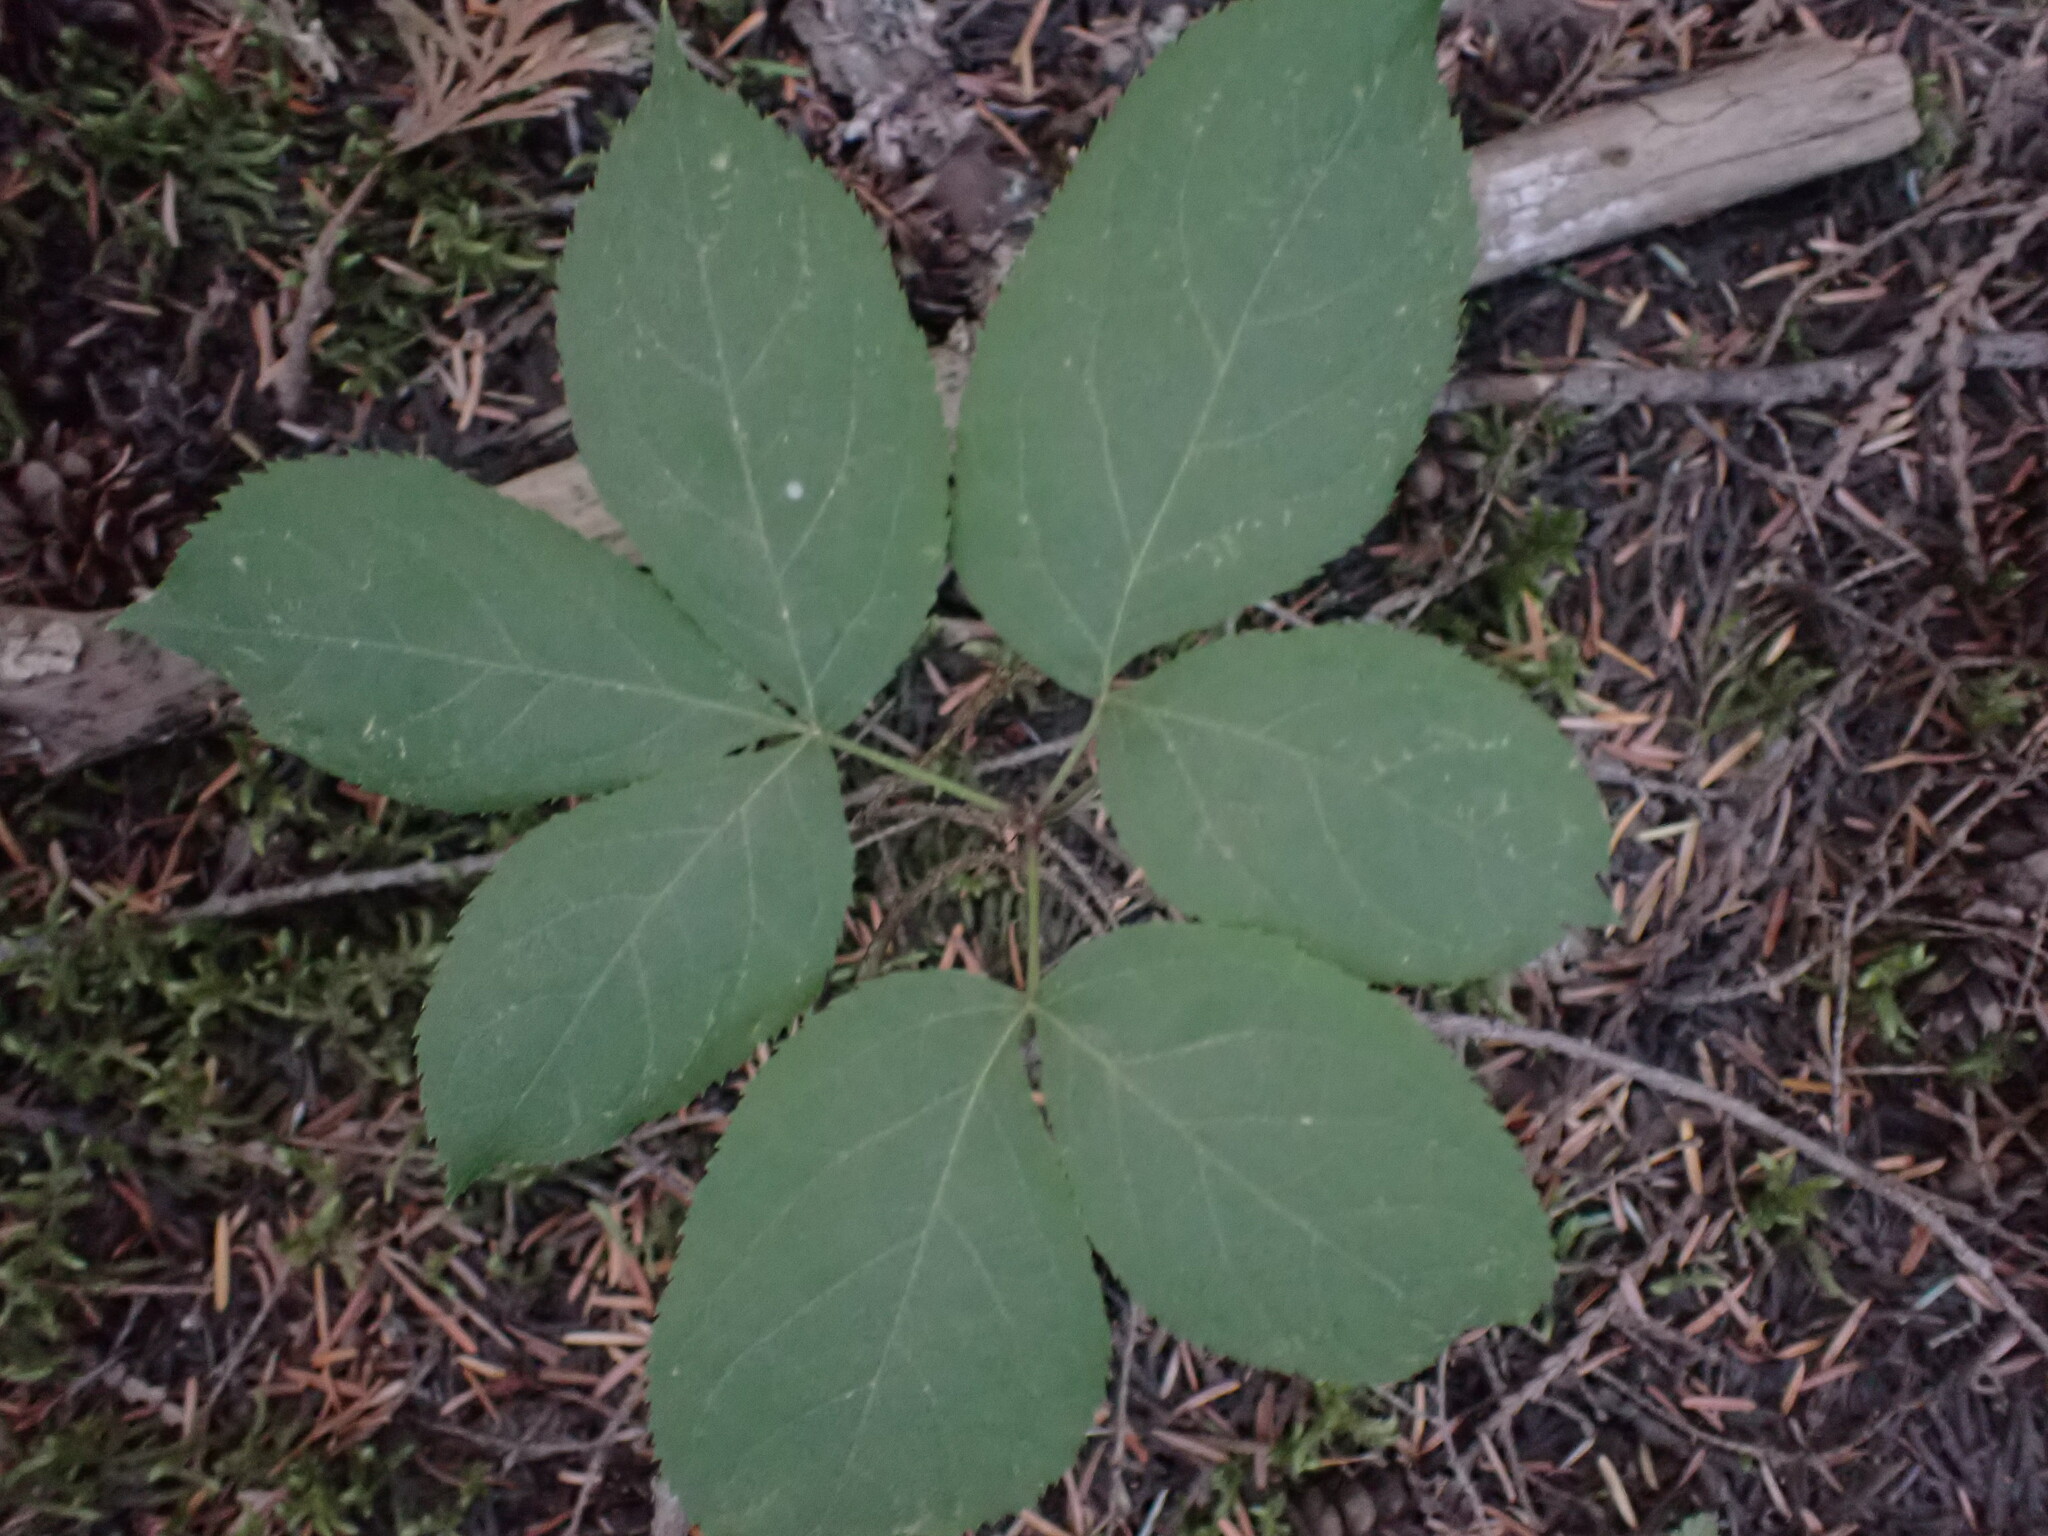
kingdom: Plantae
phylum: Tracheophyta
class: Magnoliopsida
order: Apiales
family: Araliaceae
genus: Aralia
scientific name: Aralia nudicaulis
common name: Wild sarsaparilla
